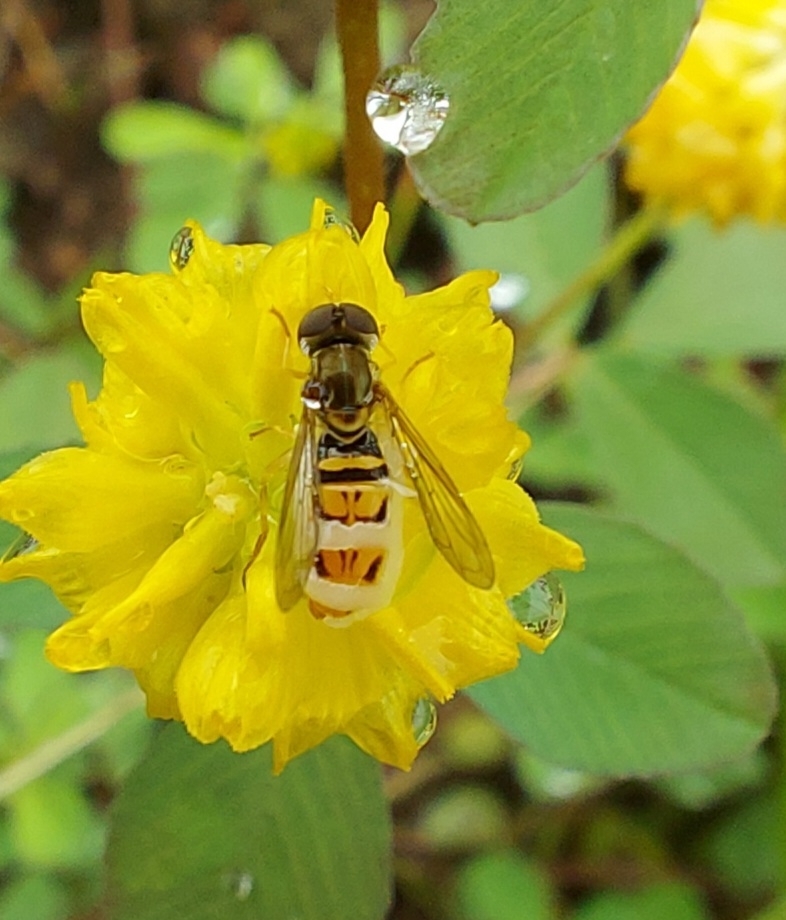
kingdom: Animalia
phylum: Arthropoda
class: Insecta
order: Diptera
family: Syrphidae
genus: Toxomerus
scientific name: Toxomerus marginatus
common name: Syrphid fly
